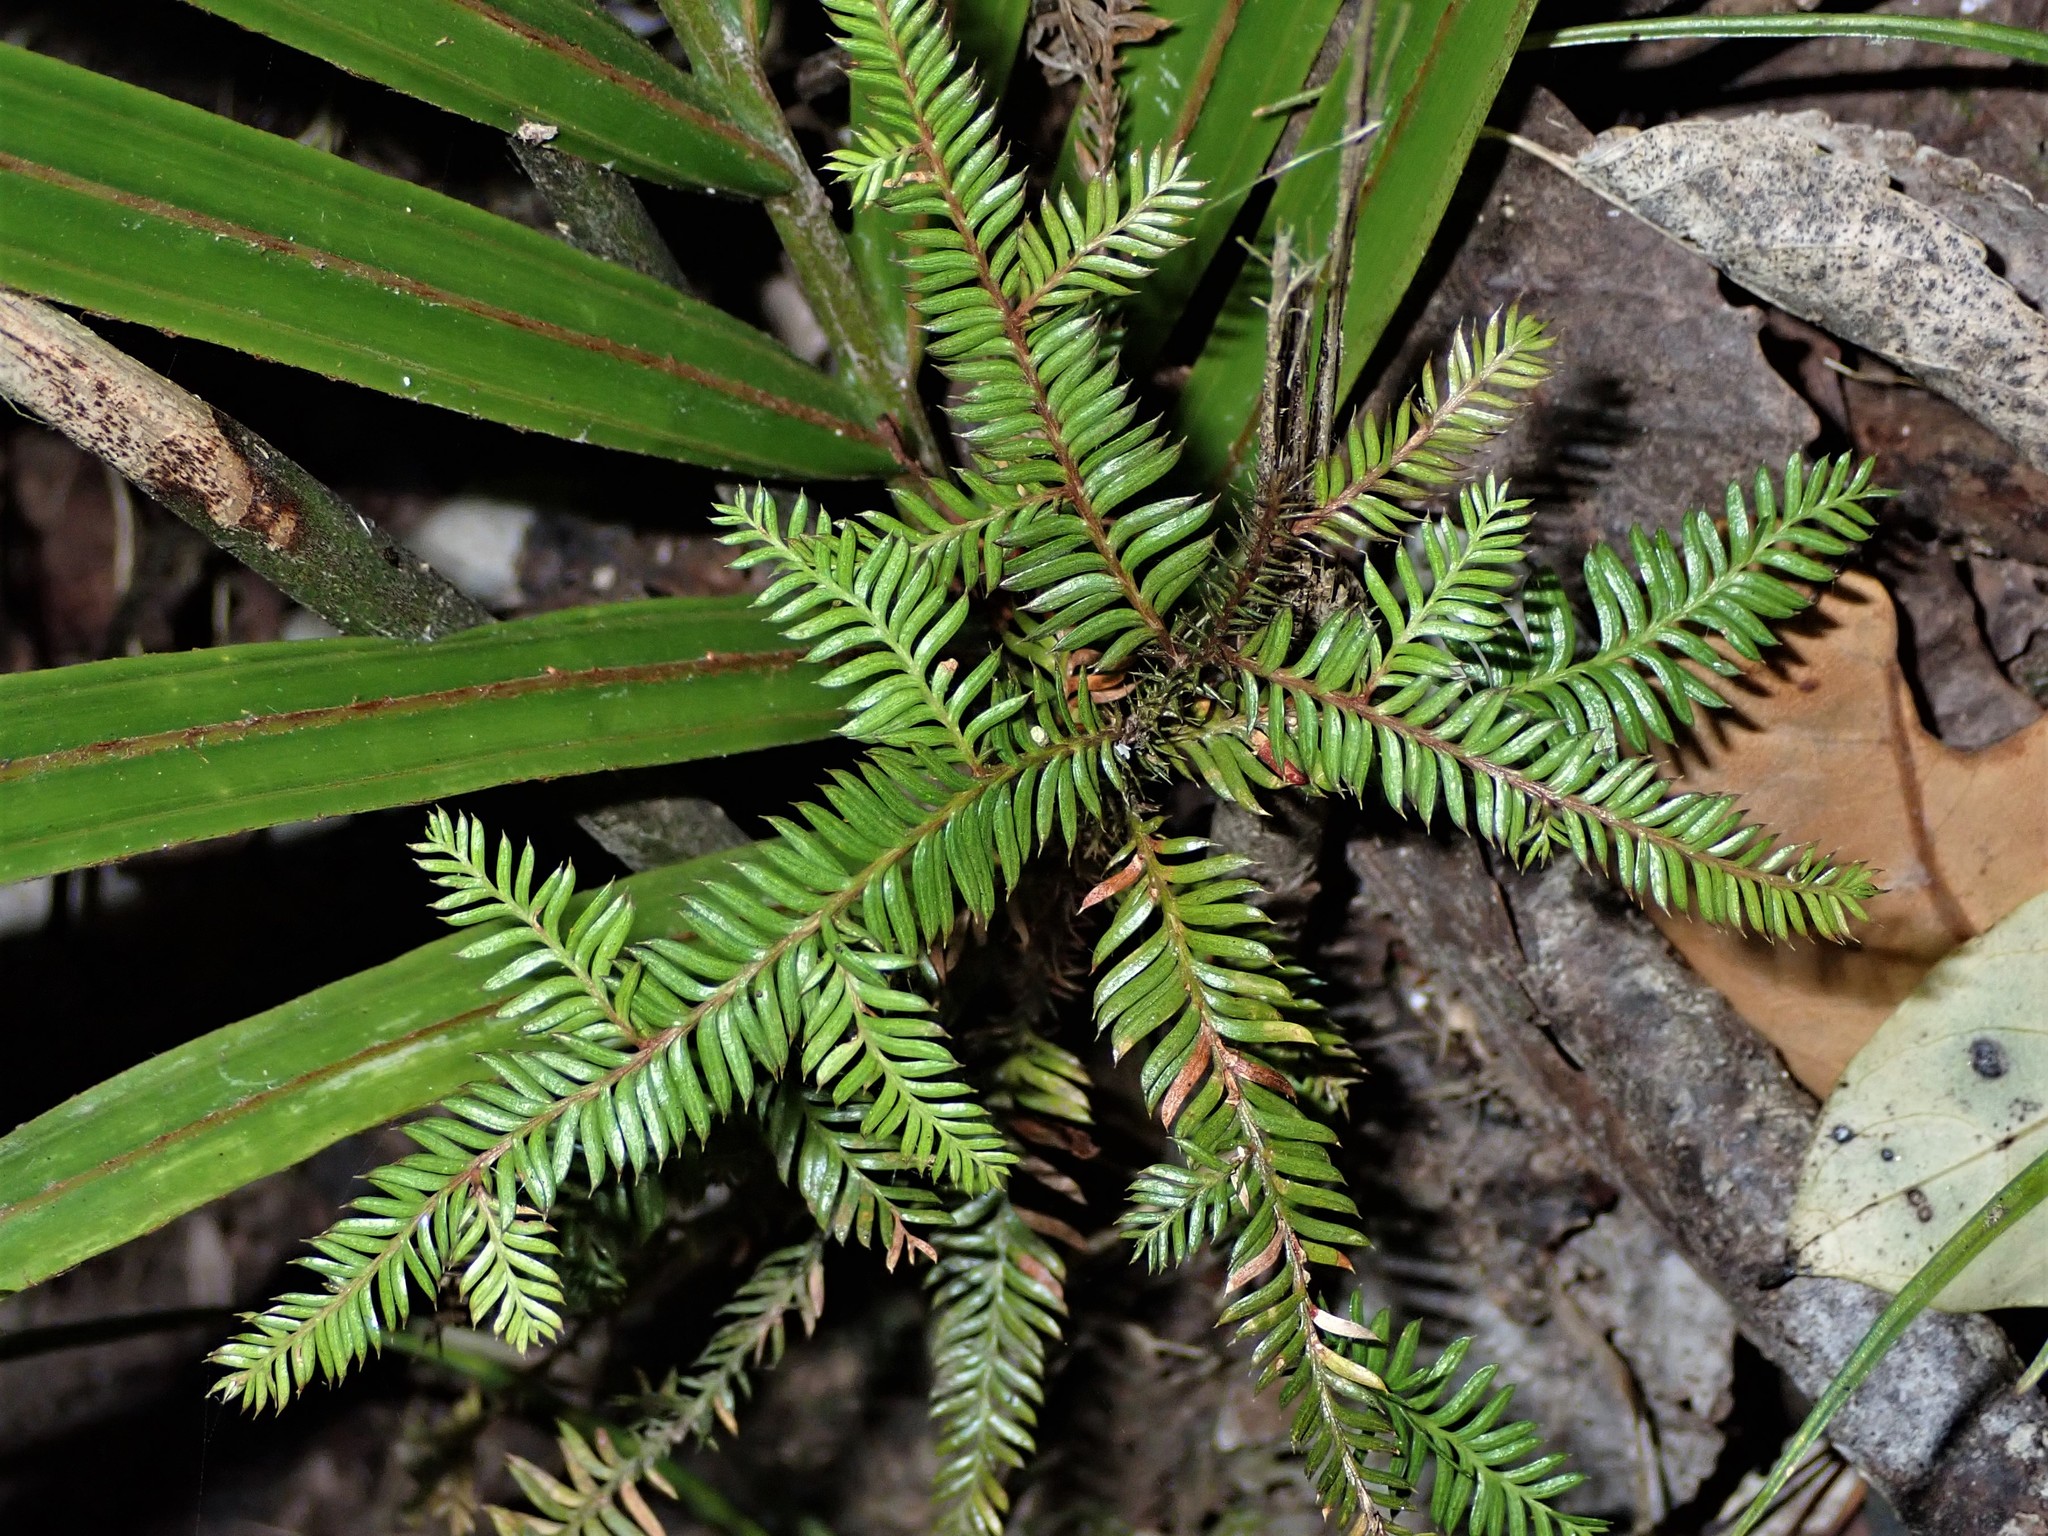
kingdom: Plantae
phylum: Tracheophyta
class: Pinopsida
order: Pinales
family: Podocarpaceae
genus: Dacrycarpus
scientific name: Dacrycarpus dacrydioides
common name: White pine
